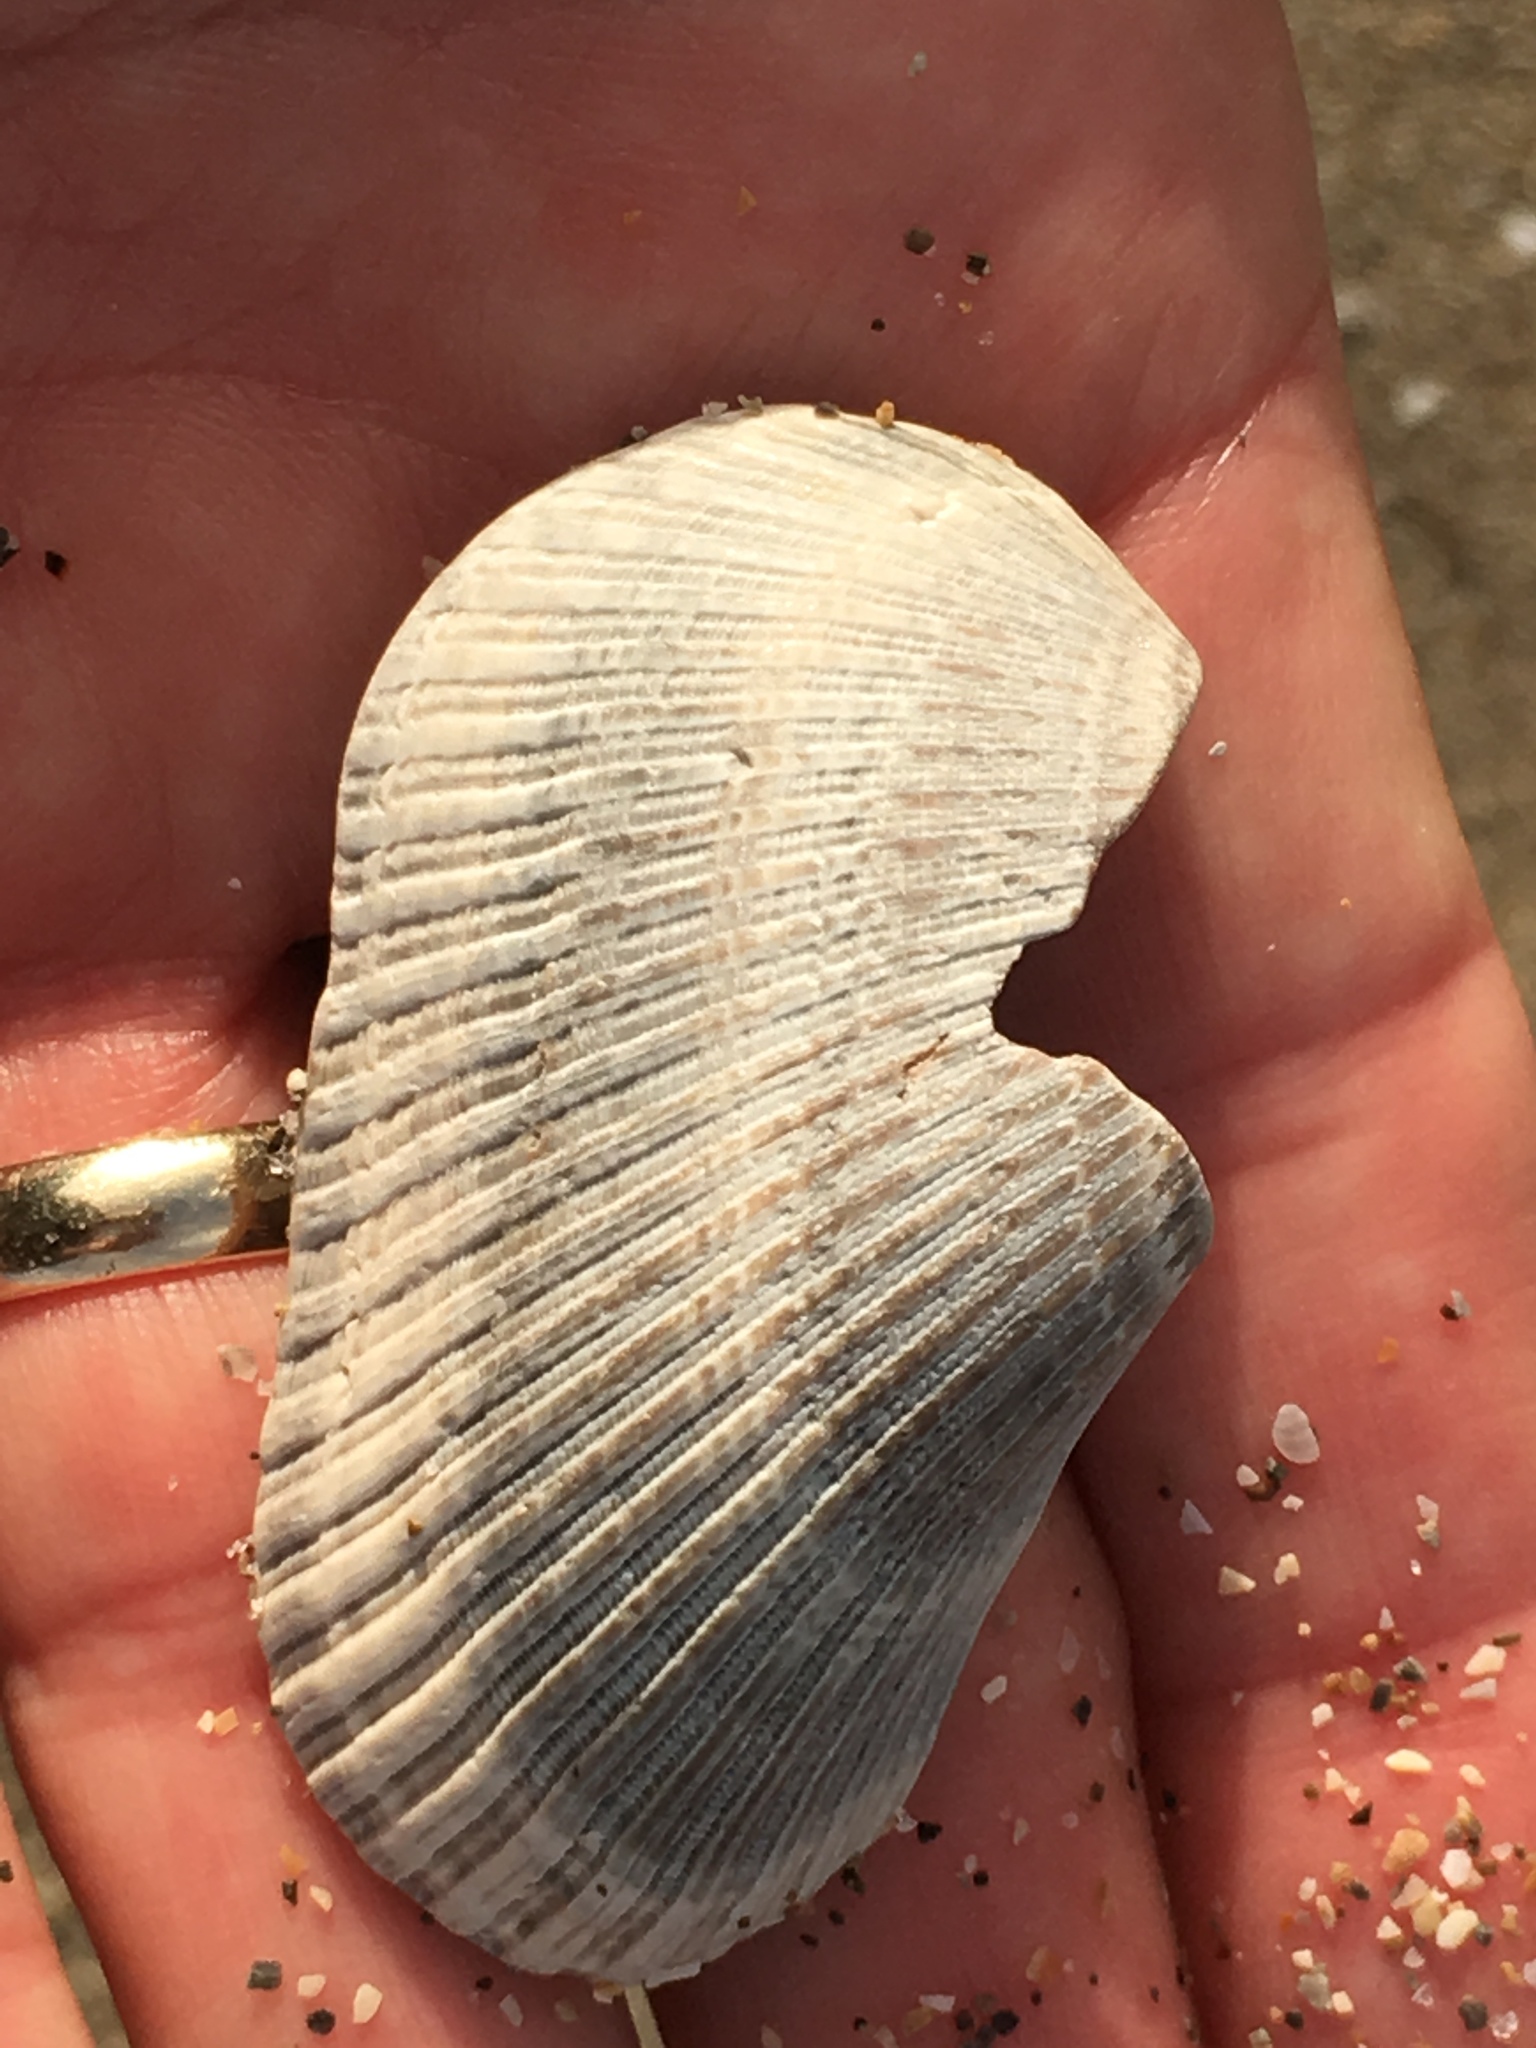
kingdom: Animalia
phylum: Mollusca
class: Bivalvia
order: Arcida
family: Noetiidae
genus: Noetia
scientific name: Noetia ponderosa
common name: Ponderous ark
